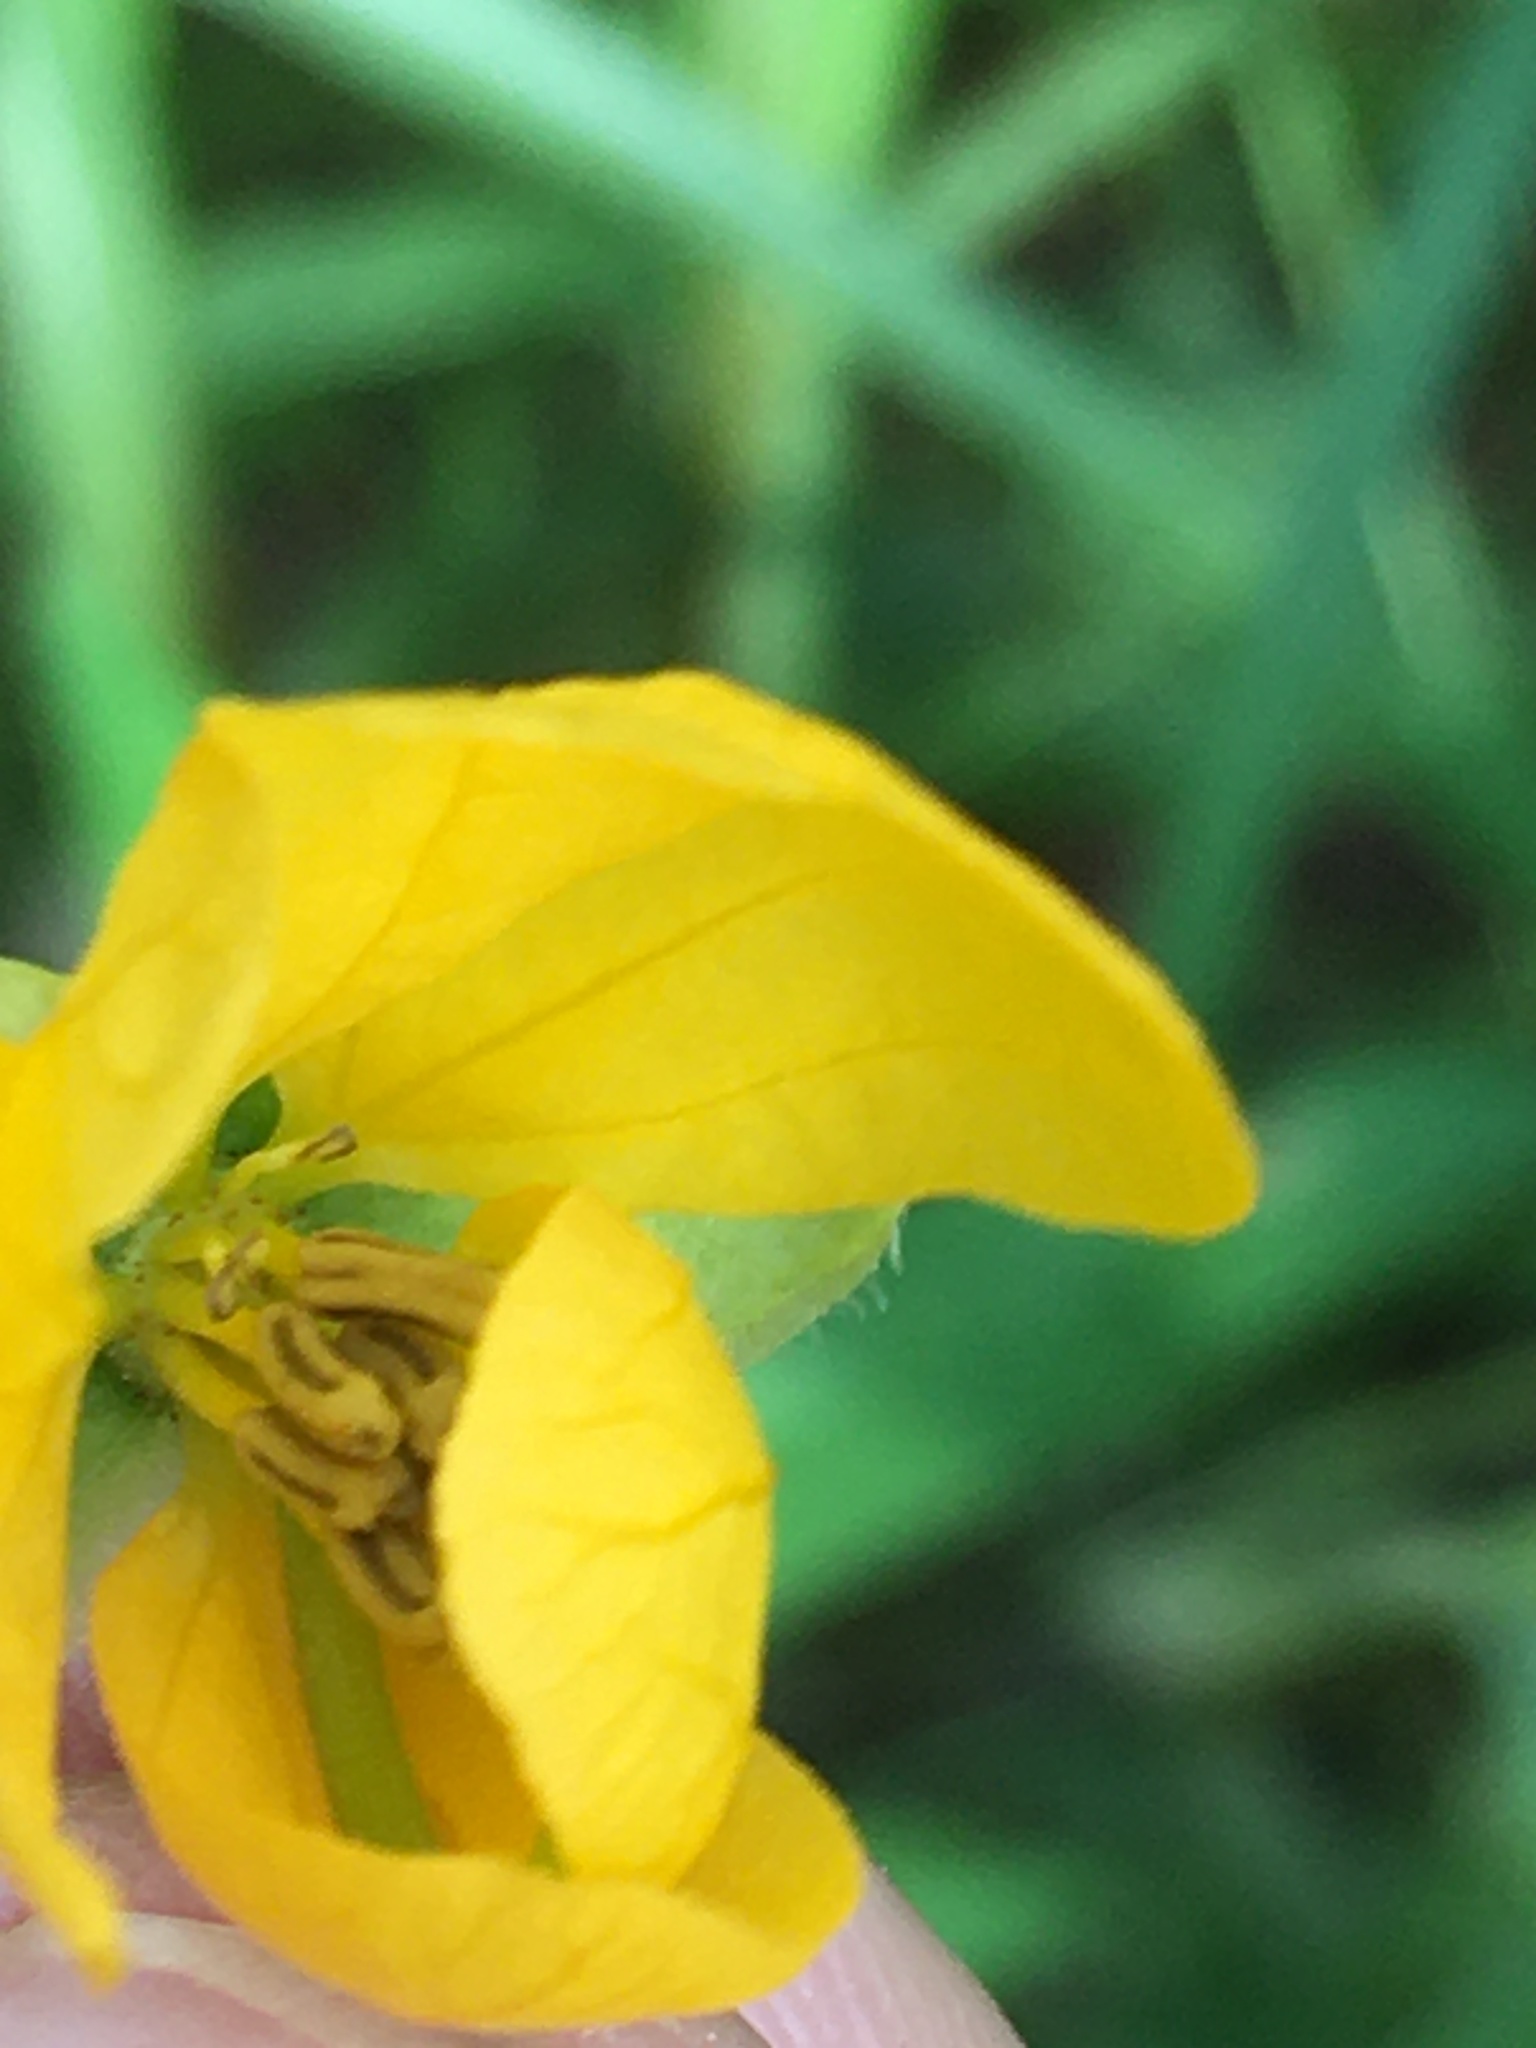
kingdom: Plantae
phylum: Tracheophyta
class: Magnoliopsida
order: Fabales
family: Fabaceae
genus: Senna
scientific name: Senna obtusifolia
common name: Java-bean
